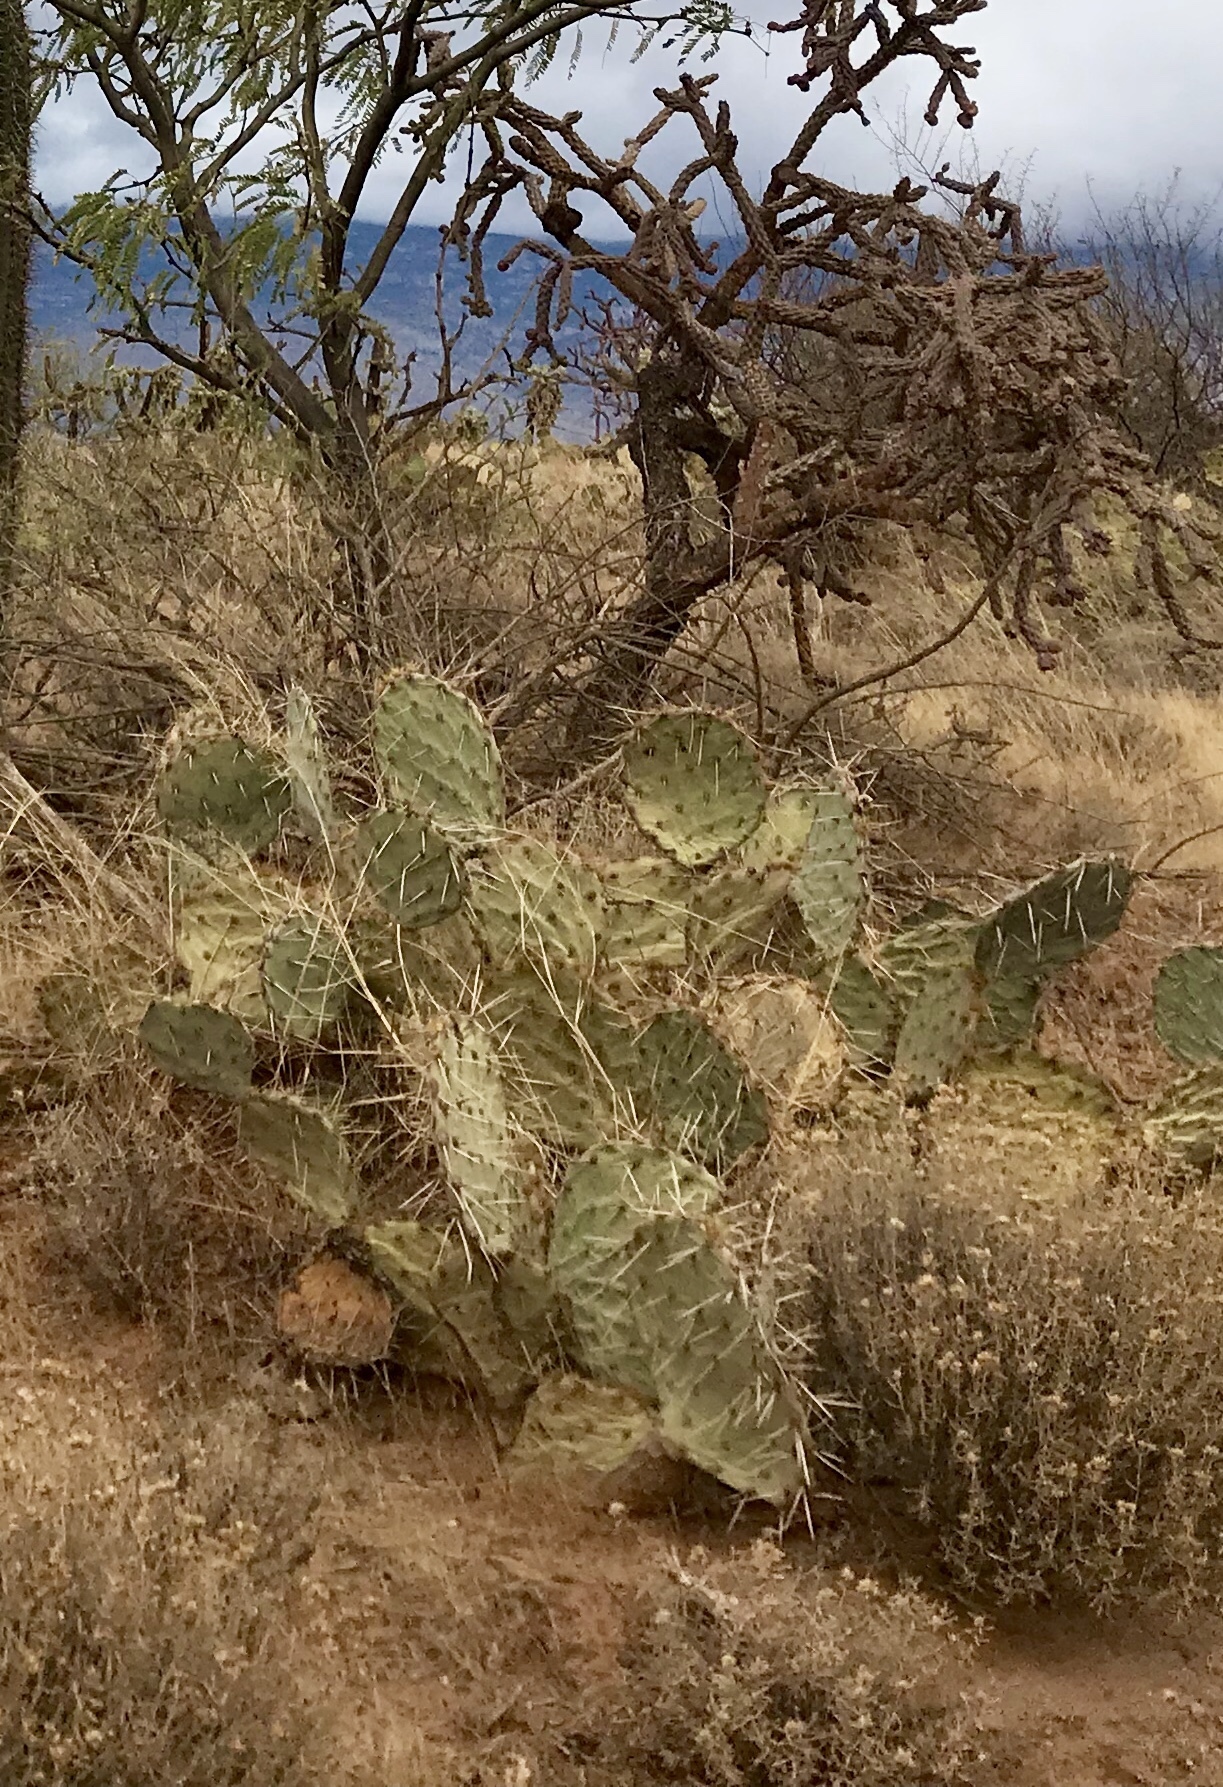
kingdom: Plantae
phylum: Tracheophyta
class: Magnoliopsida
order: Caryophyllales
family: Cactaceae
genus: Opuntia
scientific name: Opuntia engelmannii
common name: Cactus-apple
